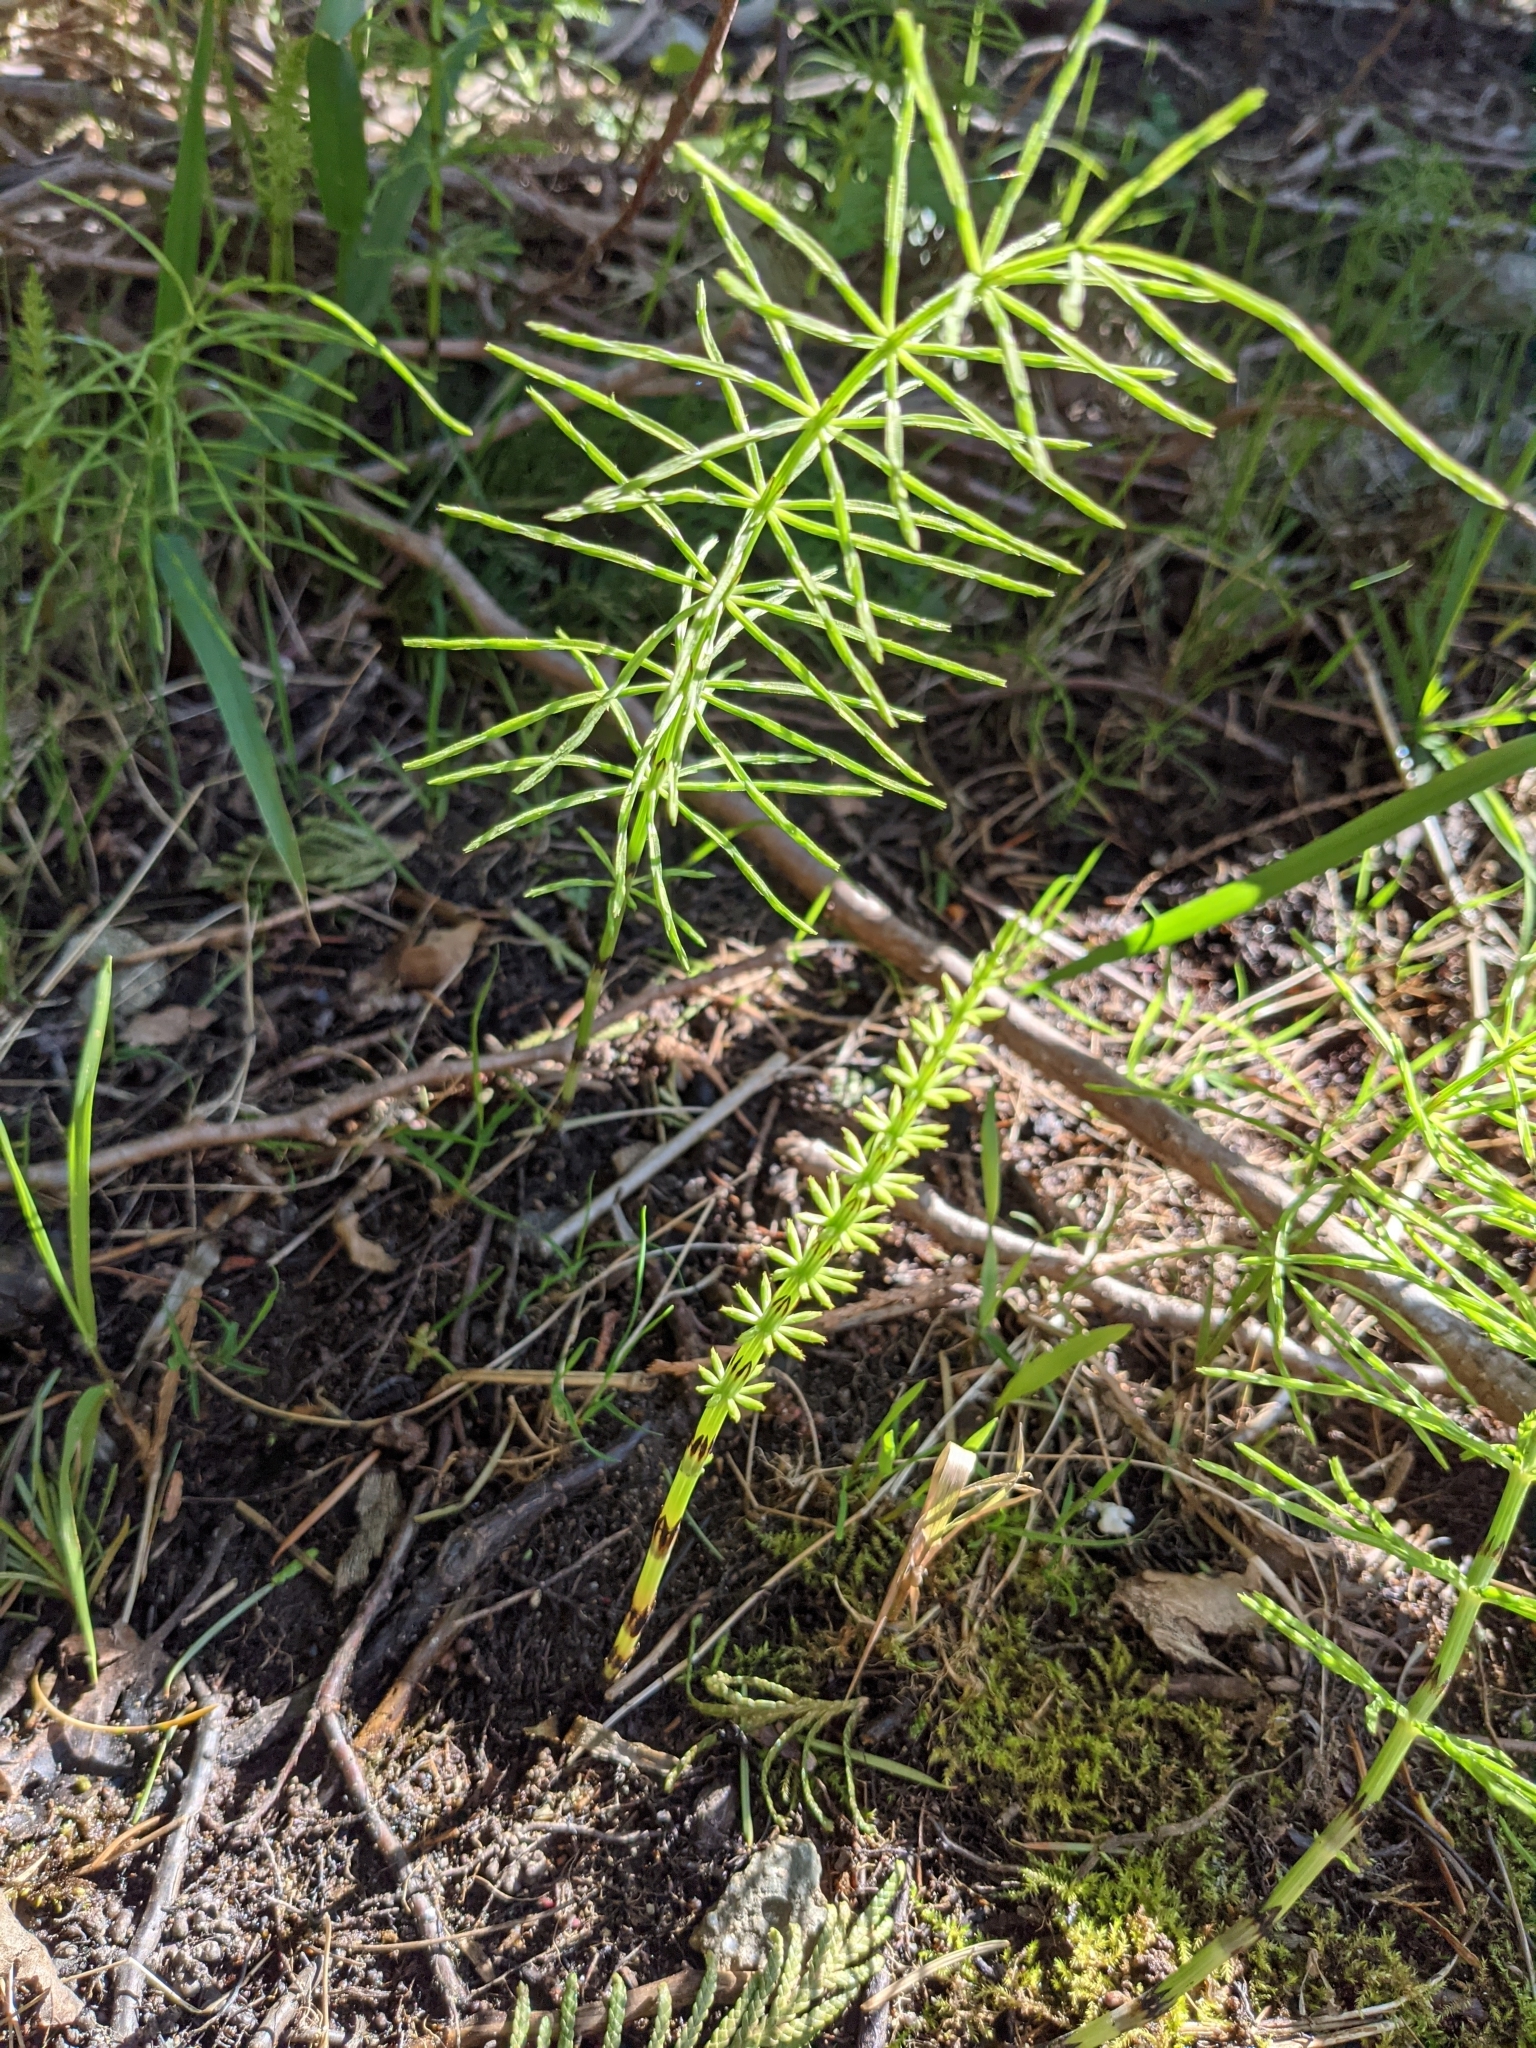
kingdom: Plantae
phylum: Tracheophyta
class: Polypodiopsida
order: Equisetales
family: Equisetaceae
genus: Equisetum
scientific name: Equisetum arvense
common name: Field horsetail
